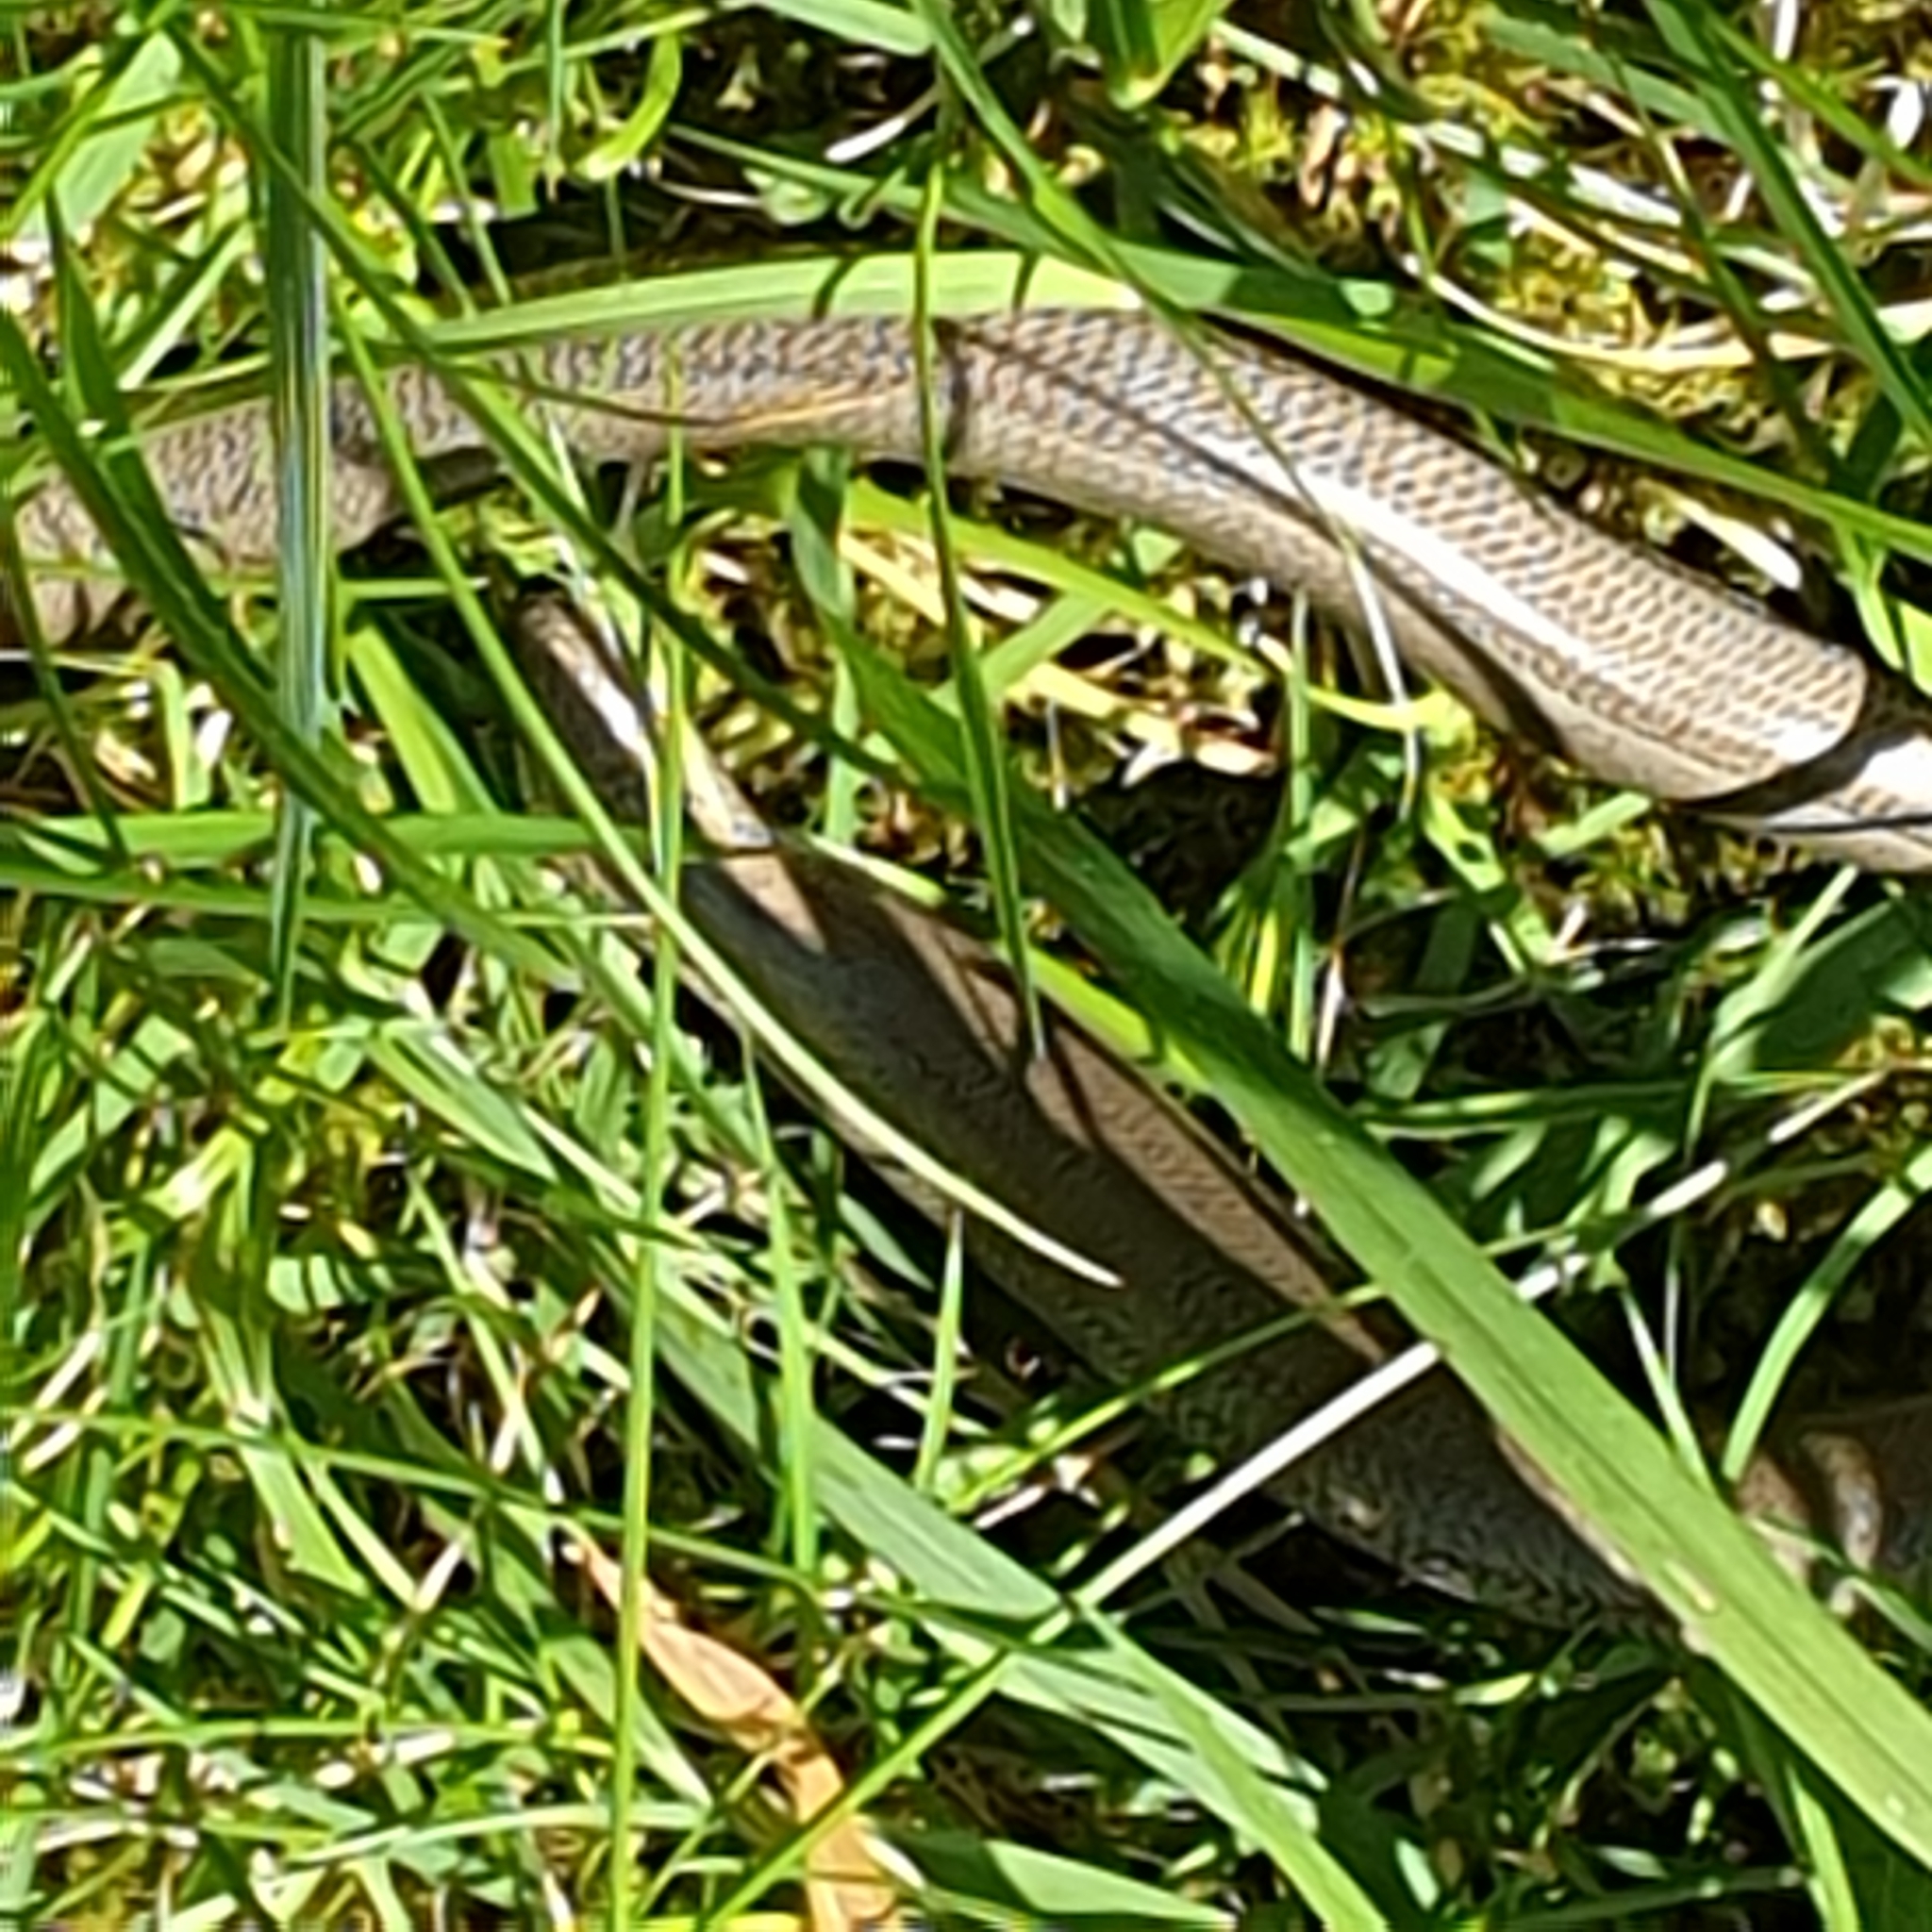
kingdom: Animalia
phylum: Chordata
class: Squamata
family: Anguidae
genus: Anguis
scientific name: Anguis fragilis
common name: Slow worm
